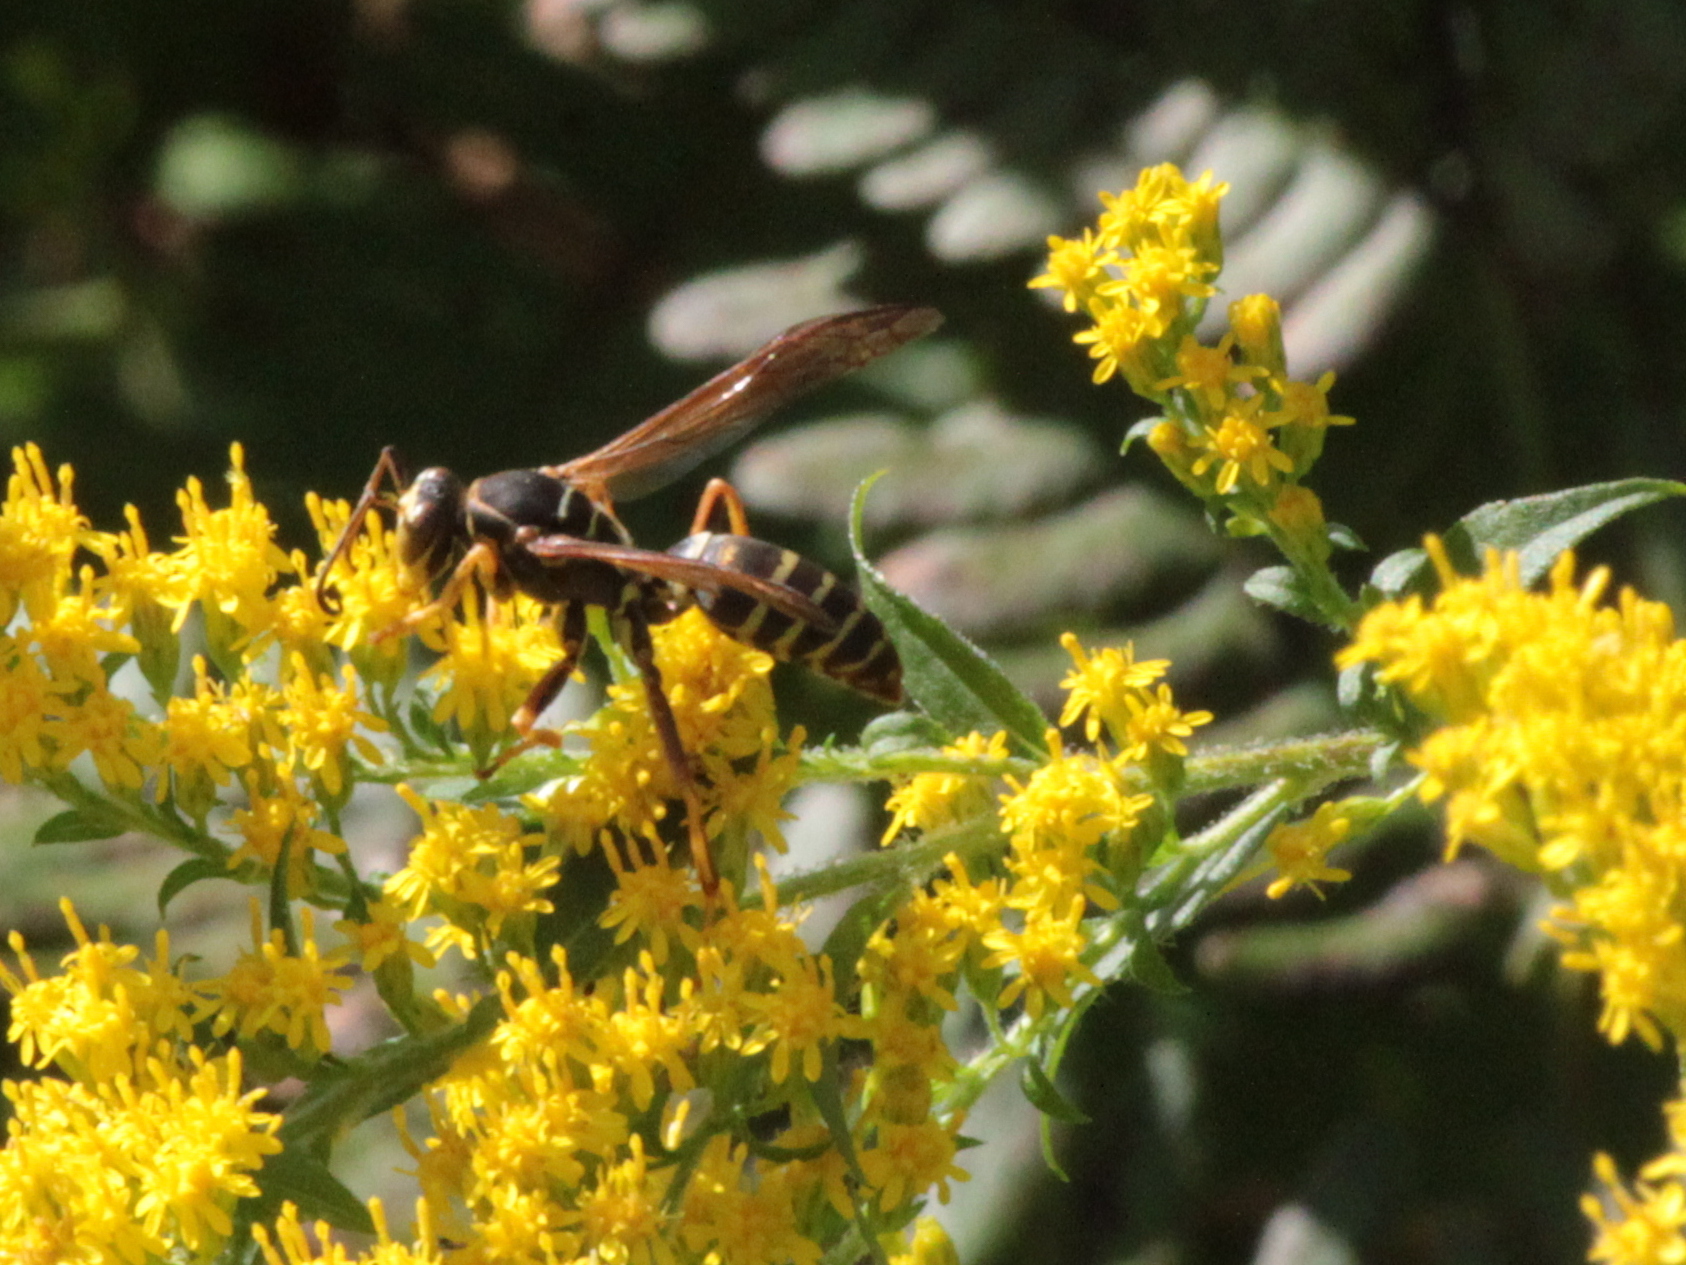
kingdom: Animalia
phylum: Arthropoda
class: Insecta
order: Hymenoptera
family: Eumenidae
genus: Polistes
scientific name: Polistes fuscatus
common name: Dark paper wasp
